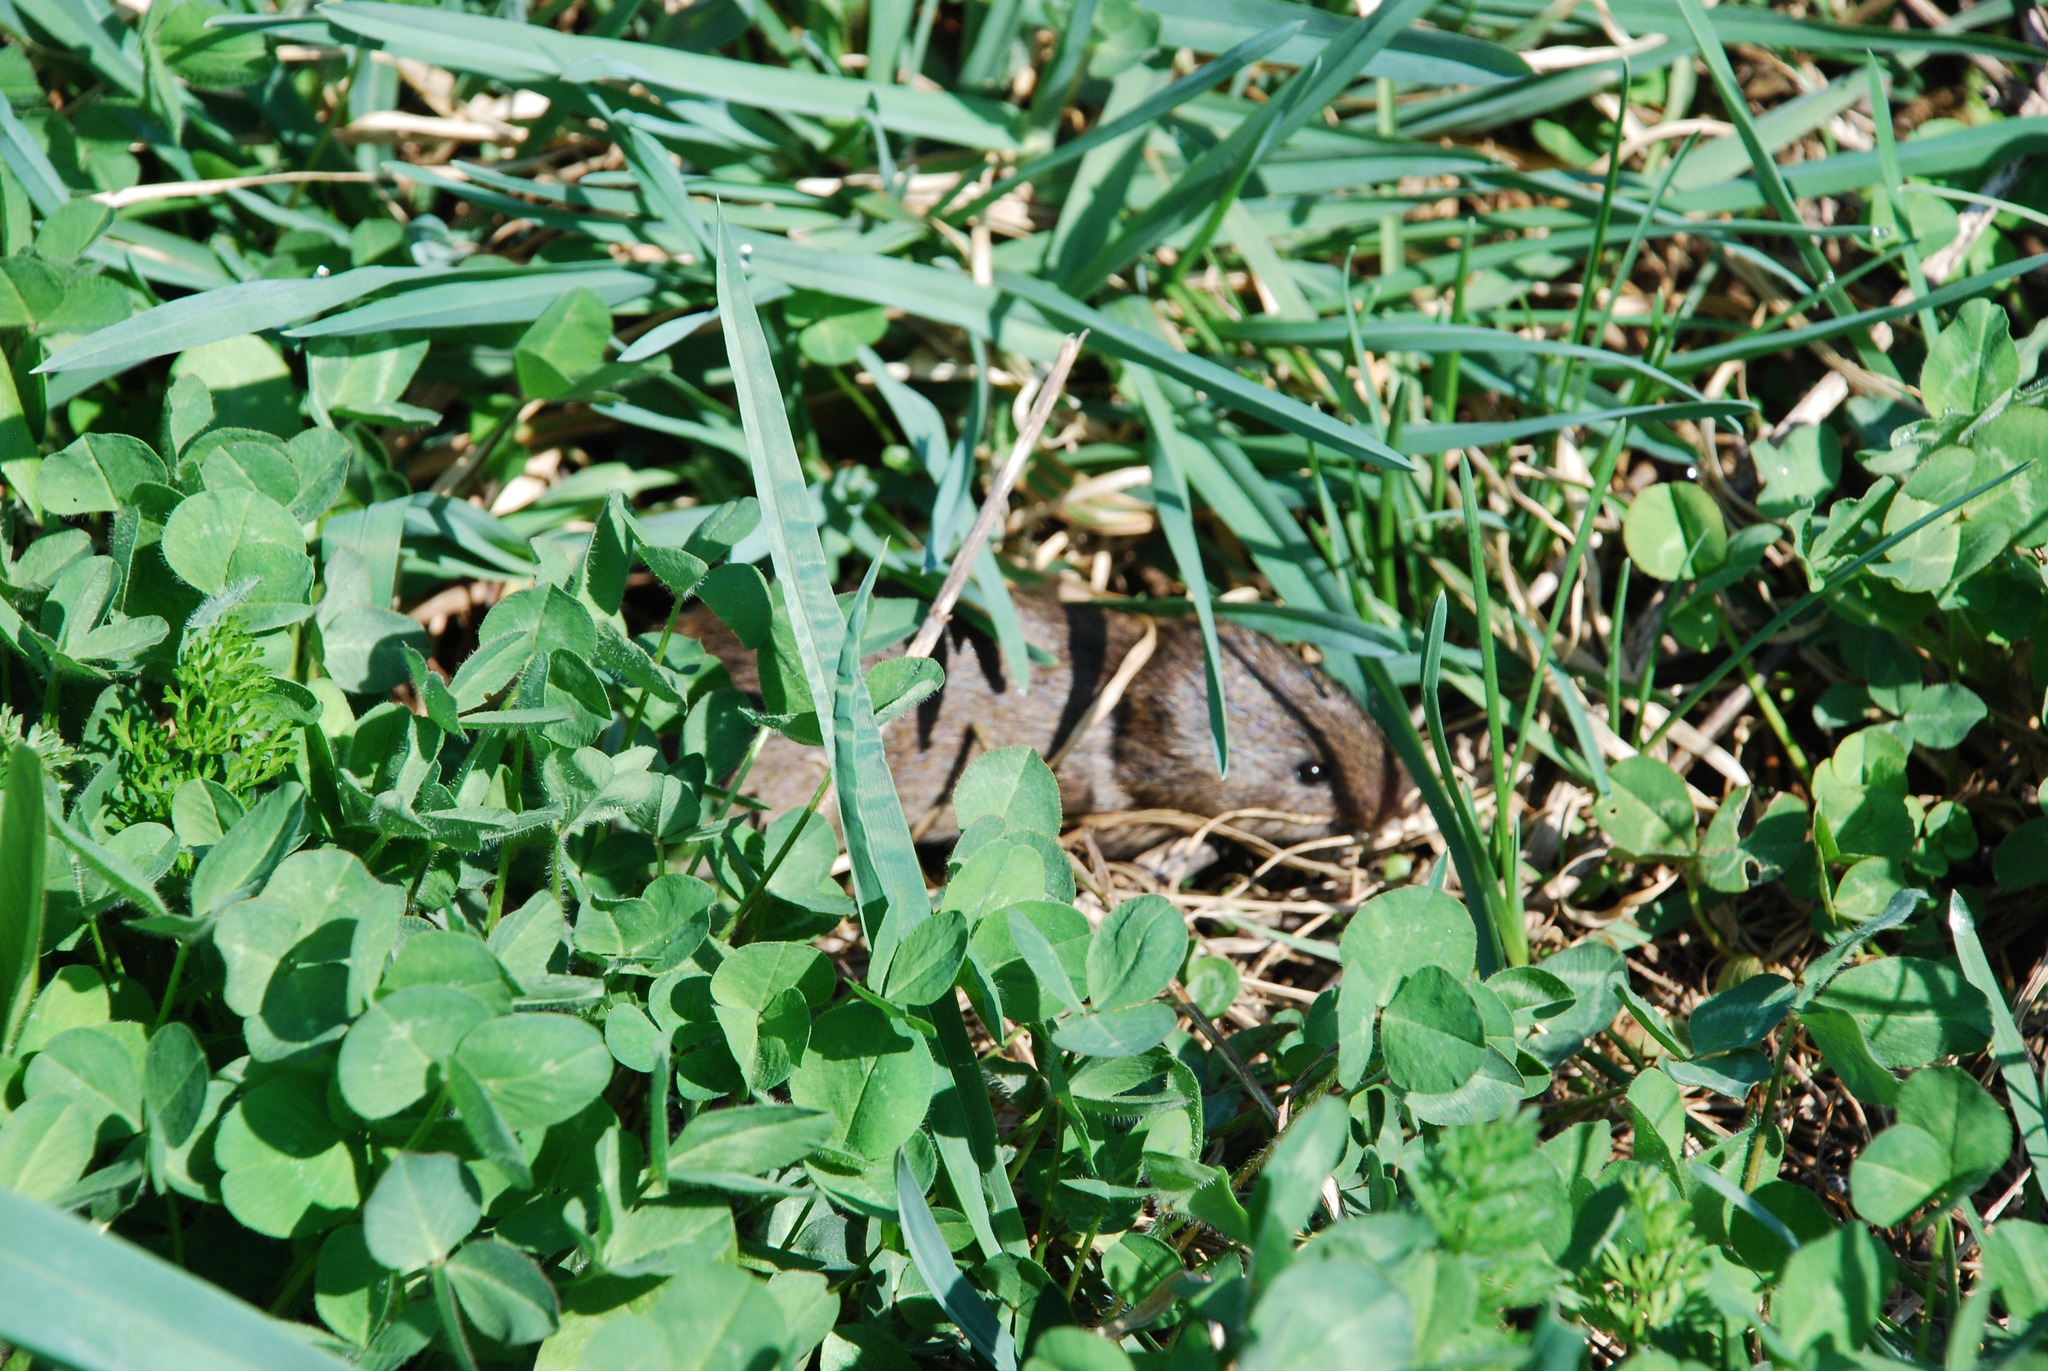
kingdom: Animalia
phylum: Chordata
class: Mammalia
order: Rodentia
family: Cricetidae
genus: Microtus
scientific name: Microtus pennsylvanicus
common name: Meadow vole
